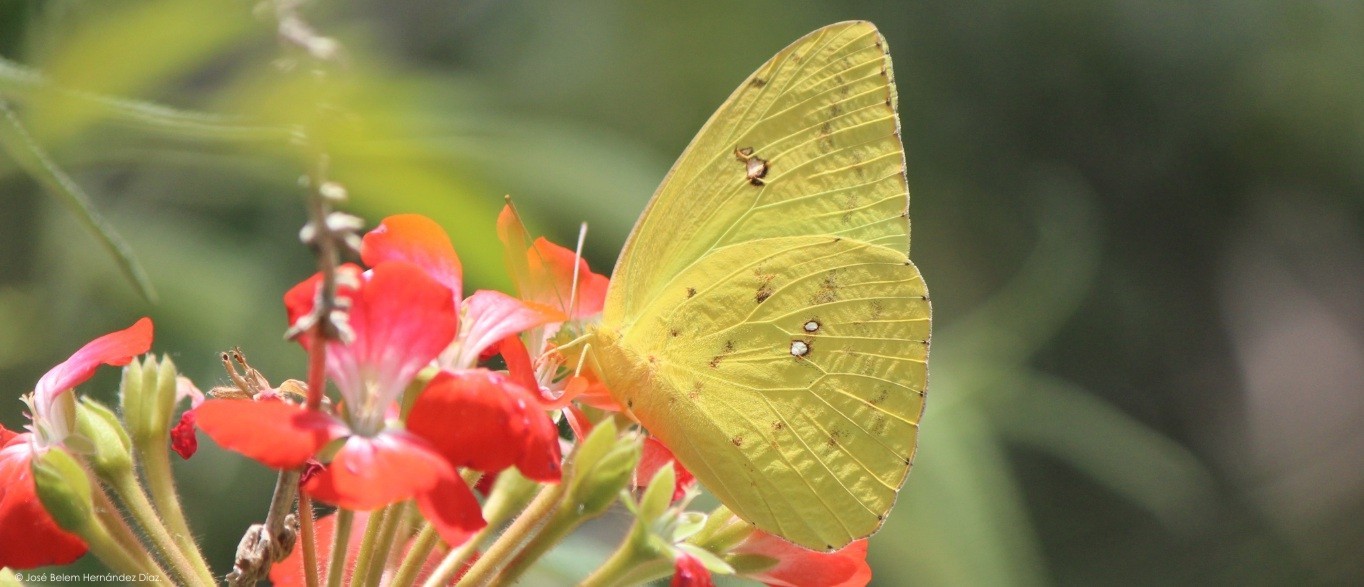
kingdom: Animalia
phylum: Arthropoda
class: Insecta
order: Lepidoptera
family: Pieridae
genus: Phoebis
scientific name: Phoebis marcellina
